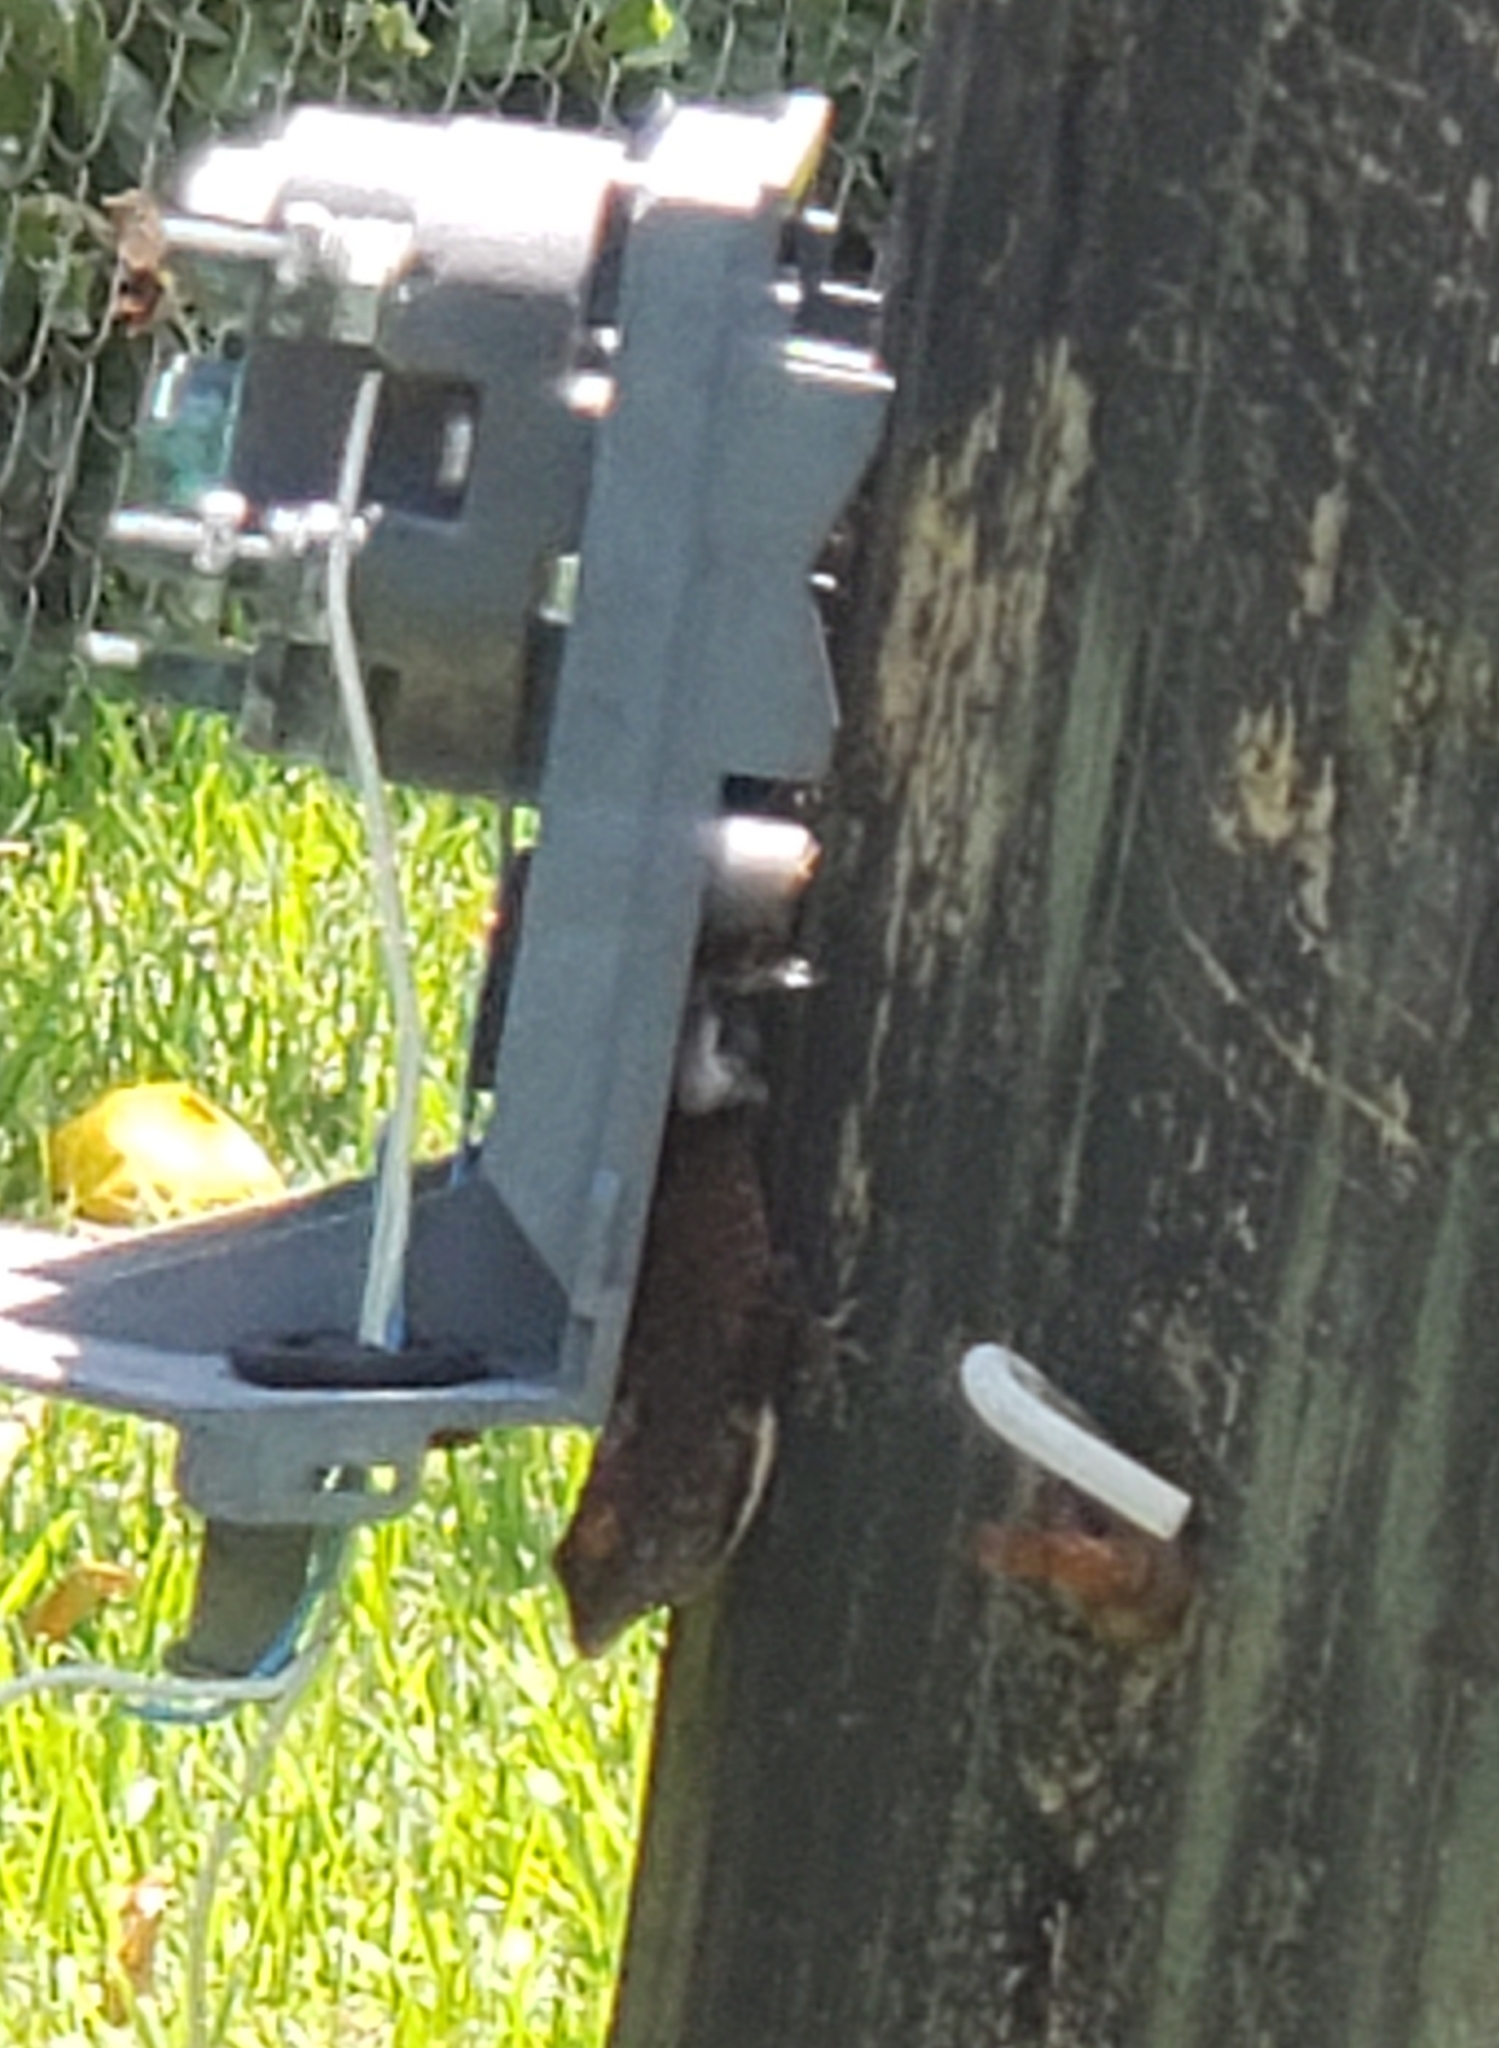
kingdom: Animalia
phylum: Chordata
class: Squamata
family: Dactyloidae
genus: Anolis
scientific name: Anolis sagrei
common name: Brown anole
